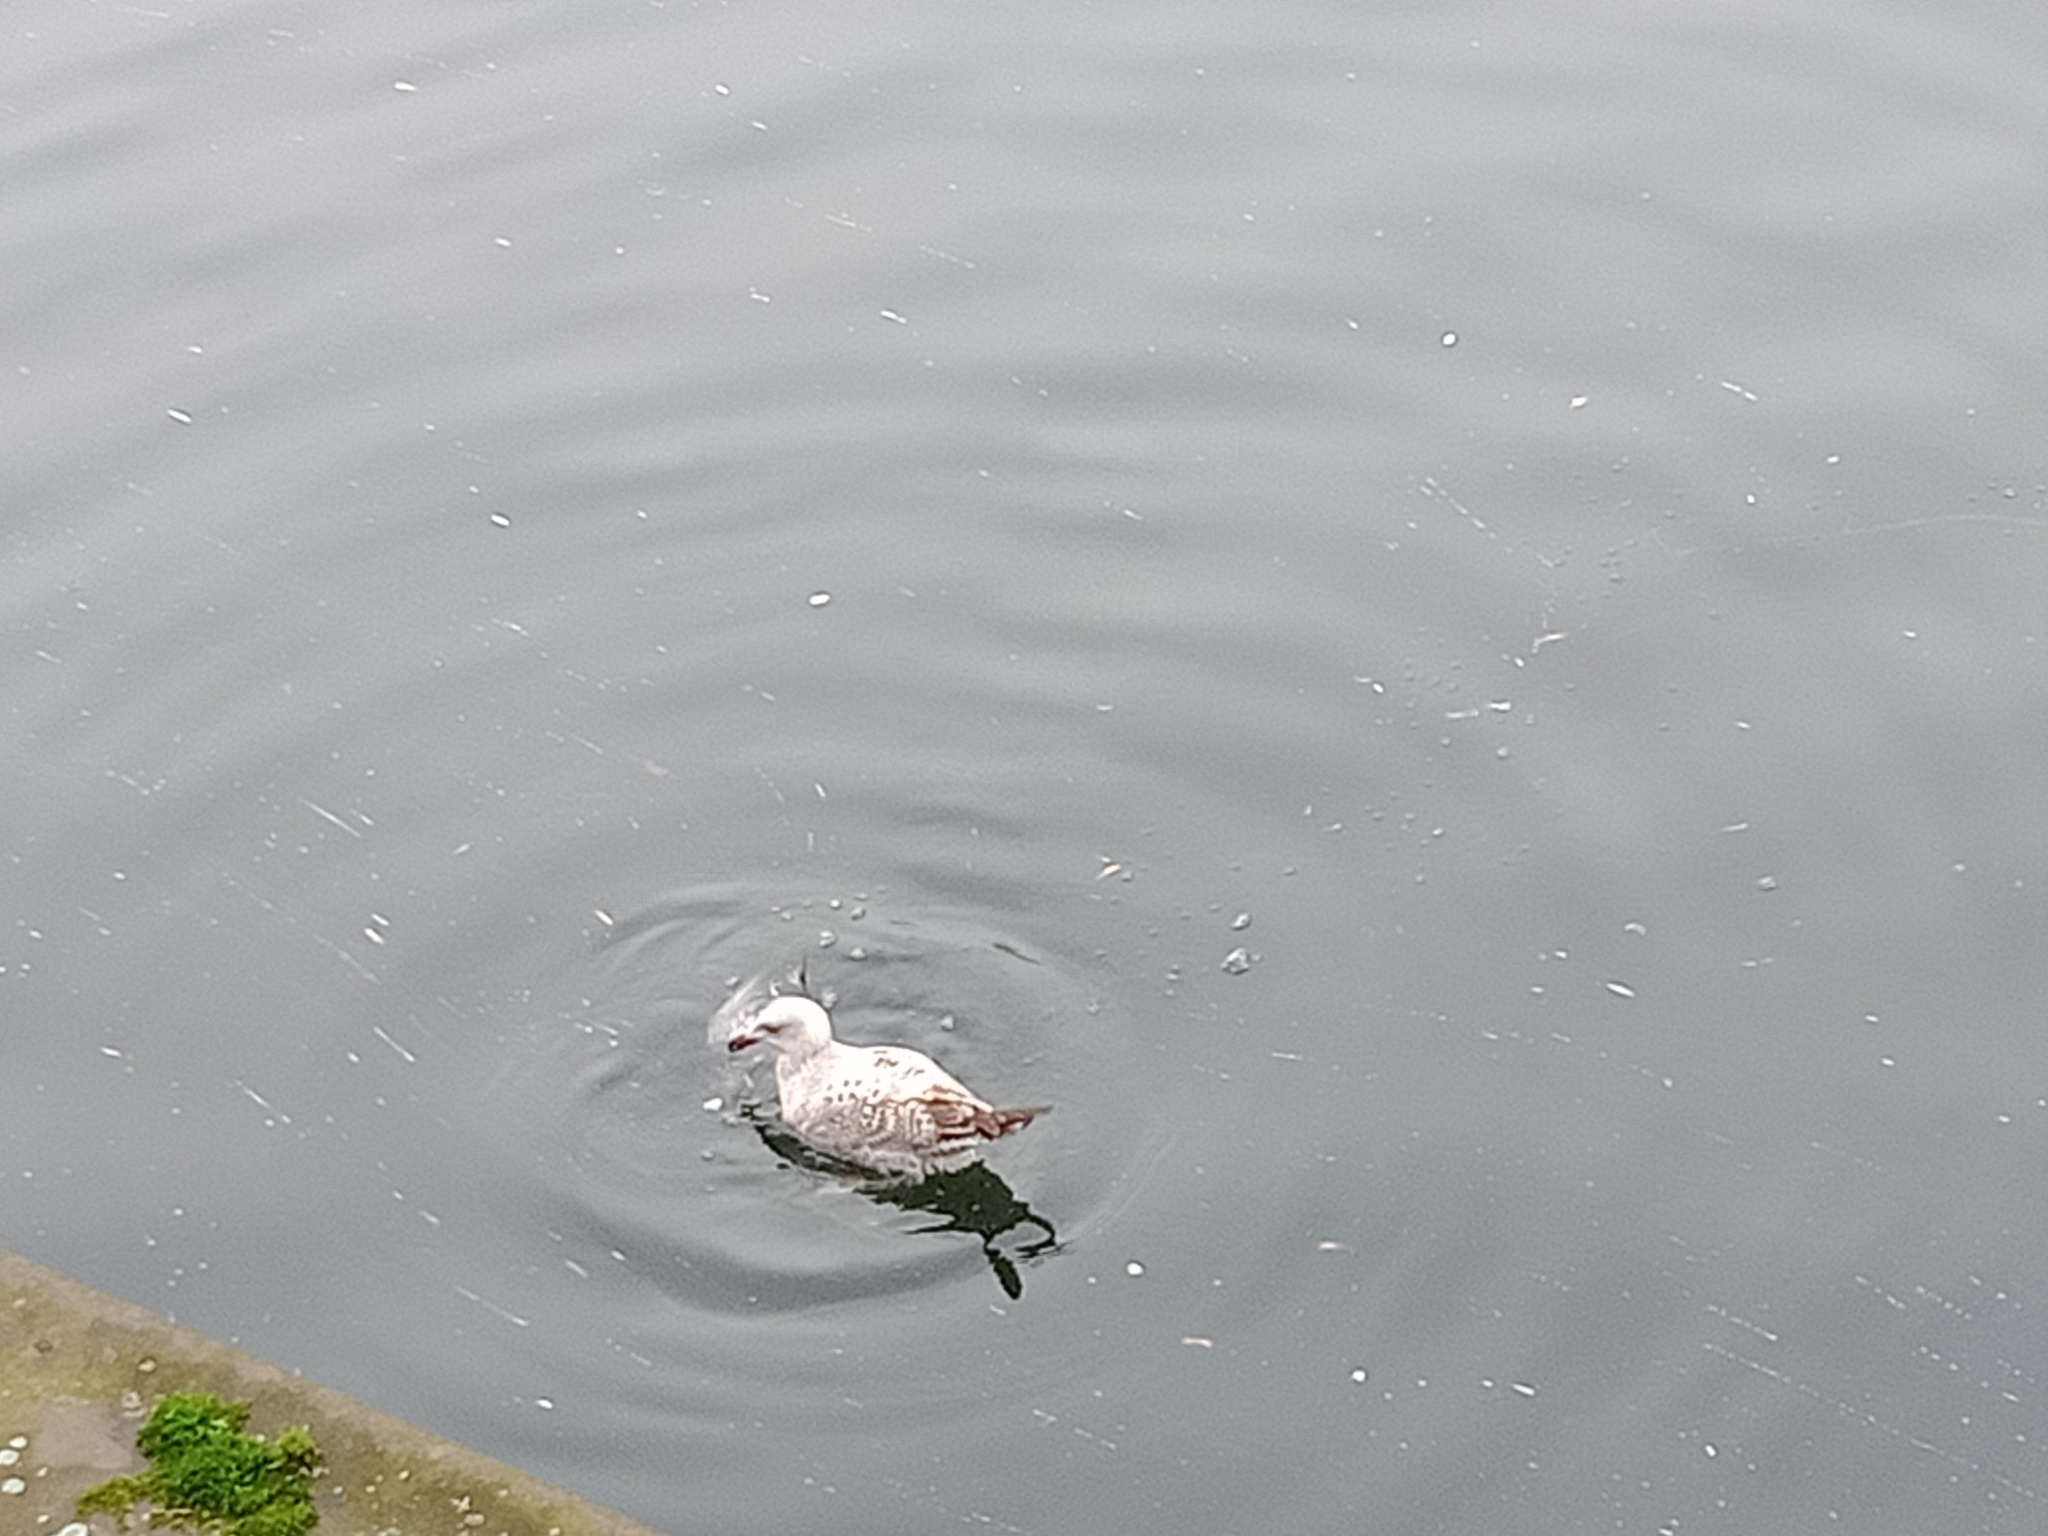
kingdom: Animalia
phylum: Chordata
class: Aves
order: Charadriiformes
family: Laridae
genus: Larus
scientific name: Larus argentatus
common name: Herring gull
